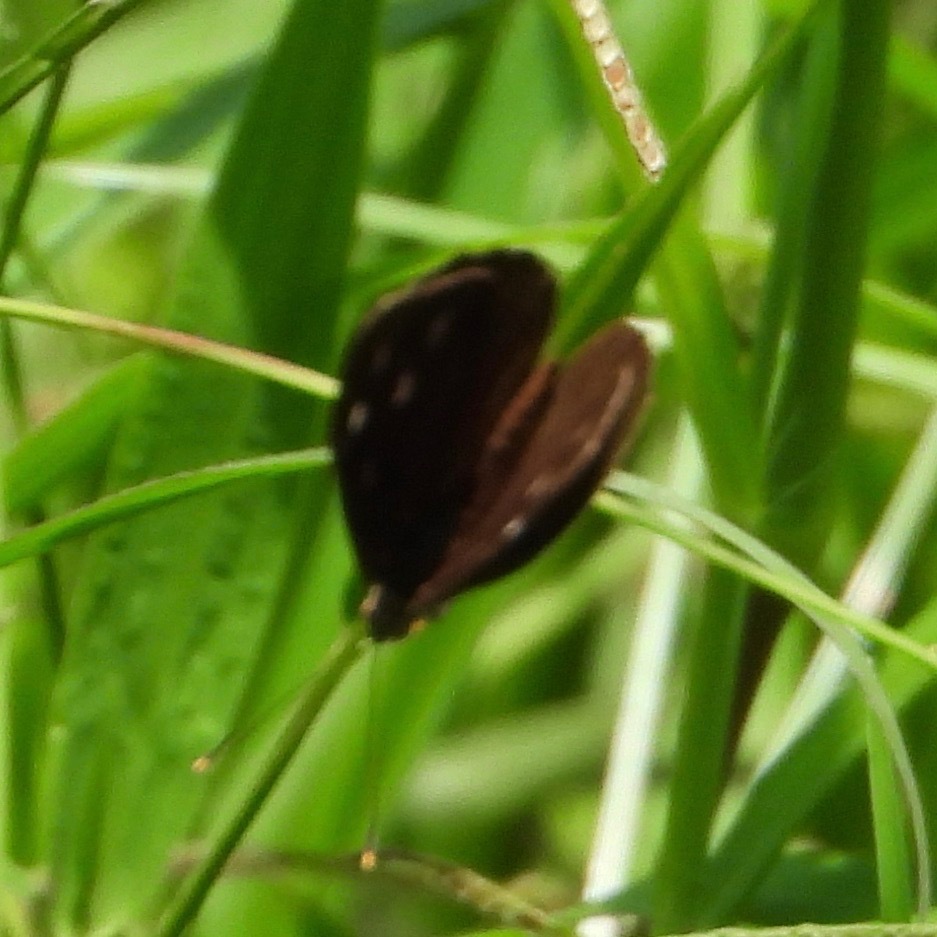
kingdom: Animalia
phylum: Arthropoda
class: Insecta
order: Lepidoptera
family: Nymphalidae
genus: Eunica
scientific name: Eunica monima
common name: Dingy purplewing
